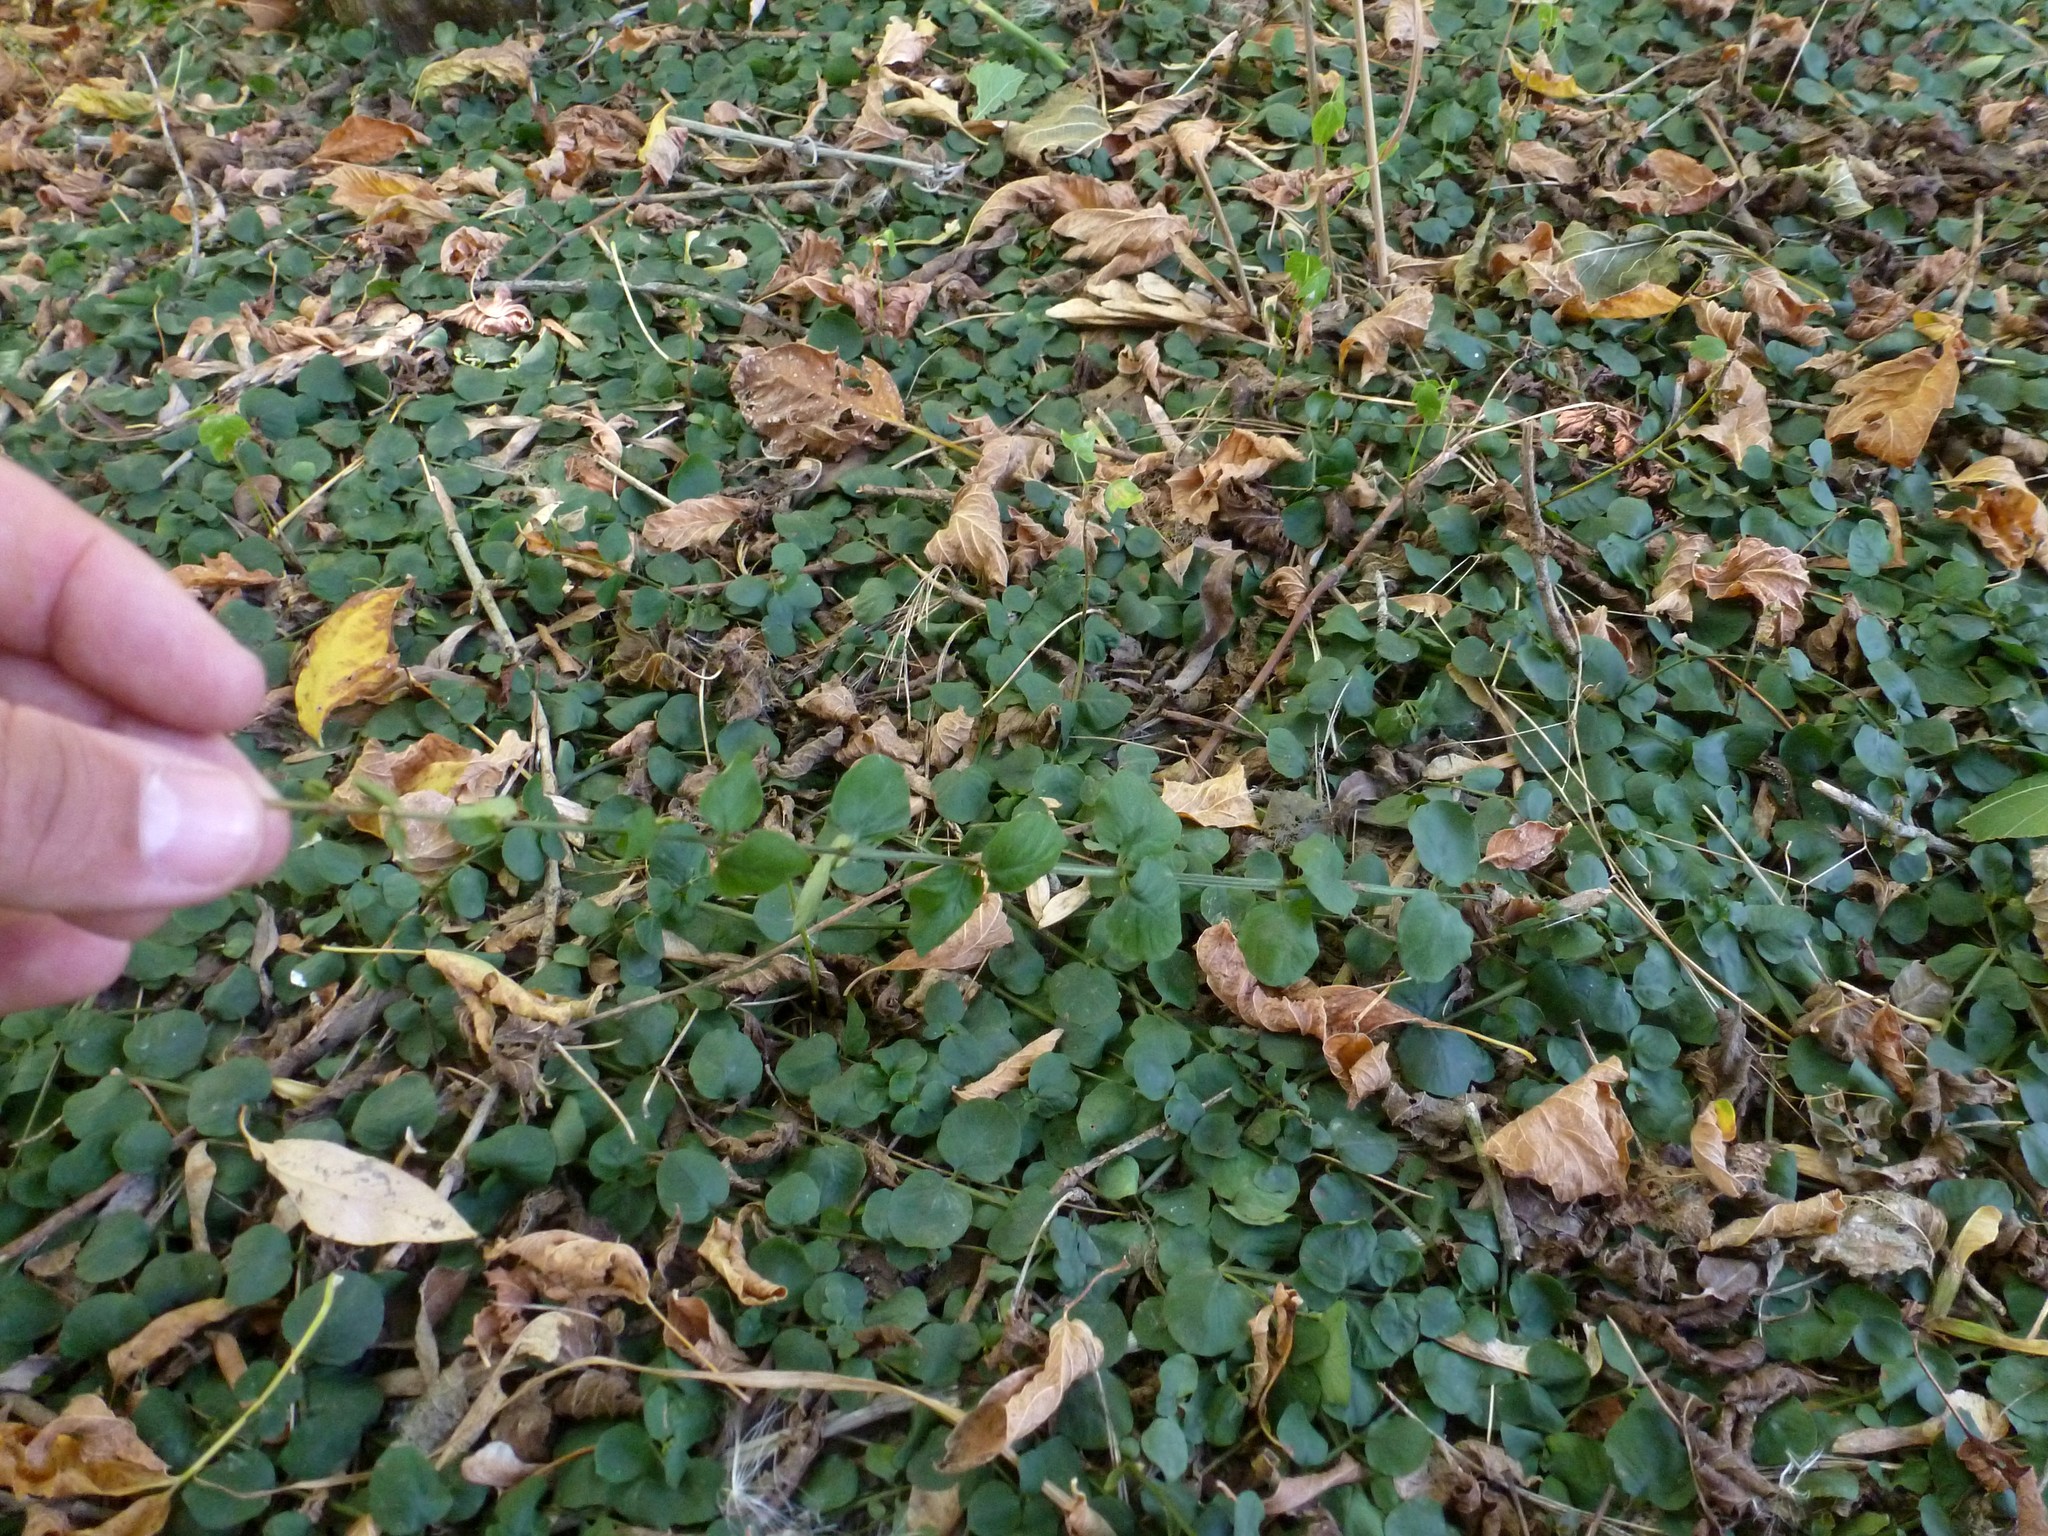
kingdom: Plantae
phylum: Tracheophyta
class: Magnoliopsida
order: Ericales
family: Primulaceae
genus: Lysimachia
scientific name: Lysimachia nummularia
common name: Moneywort
